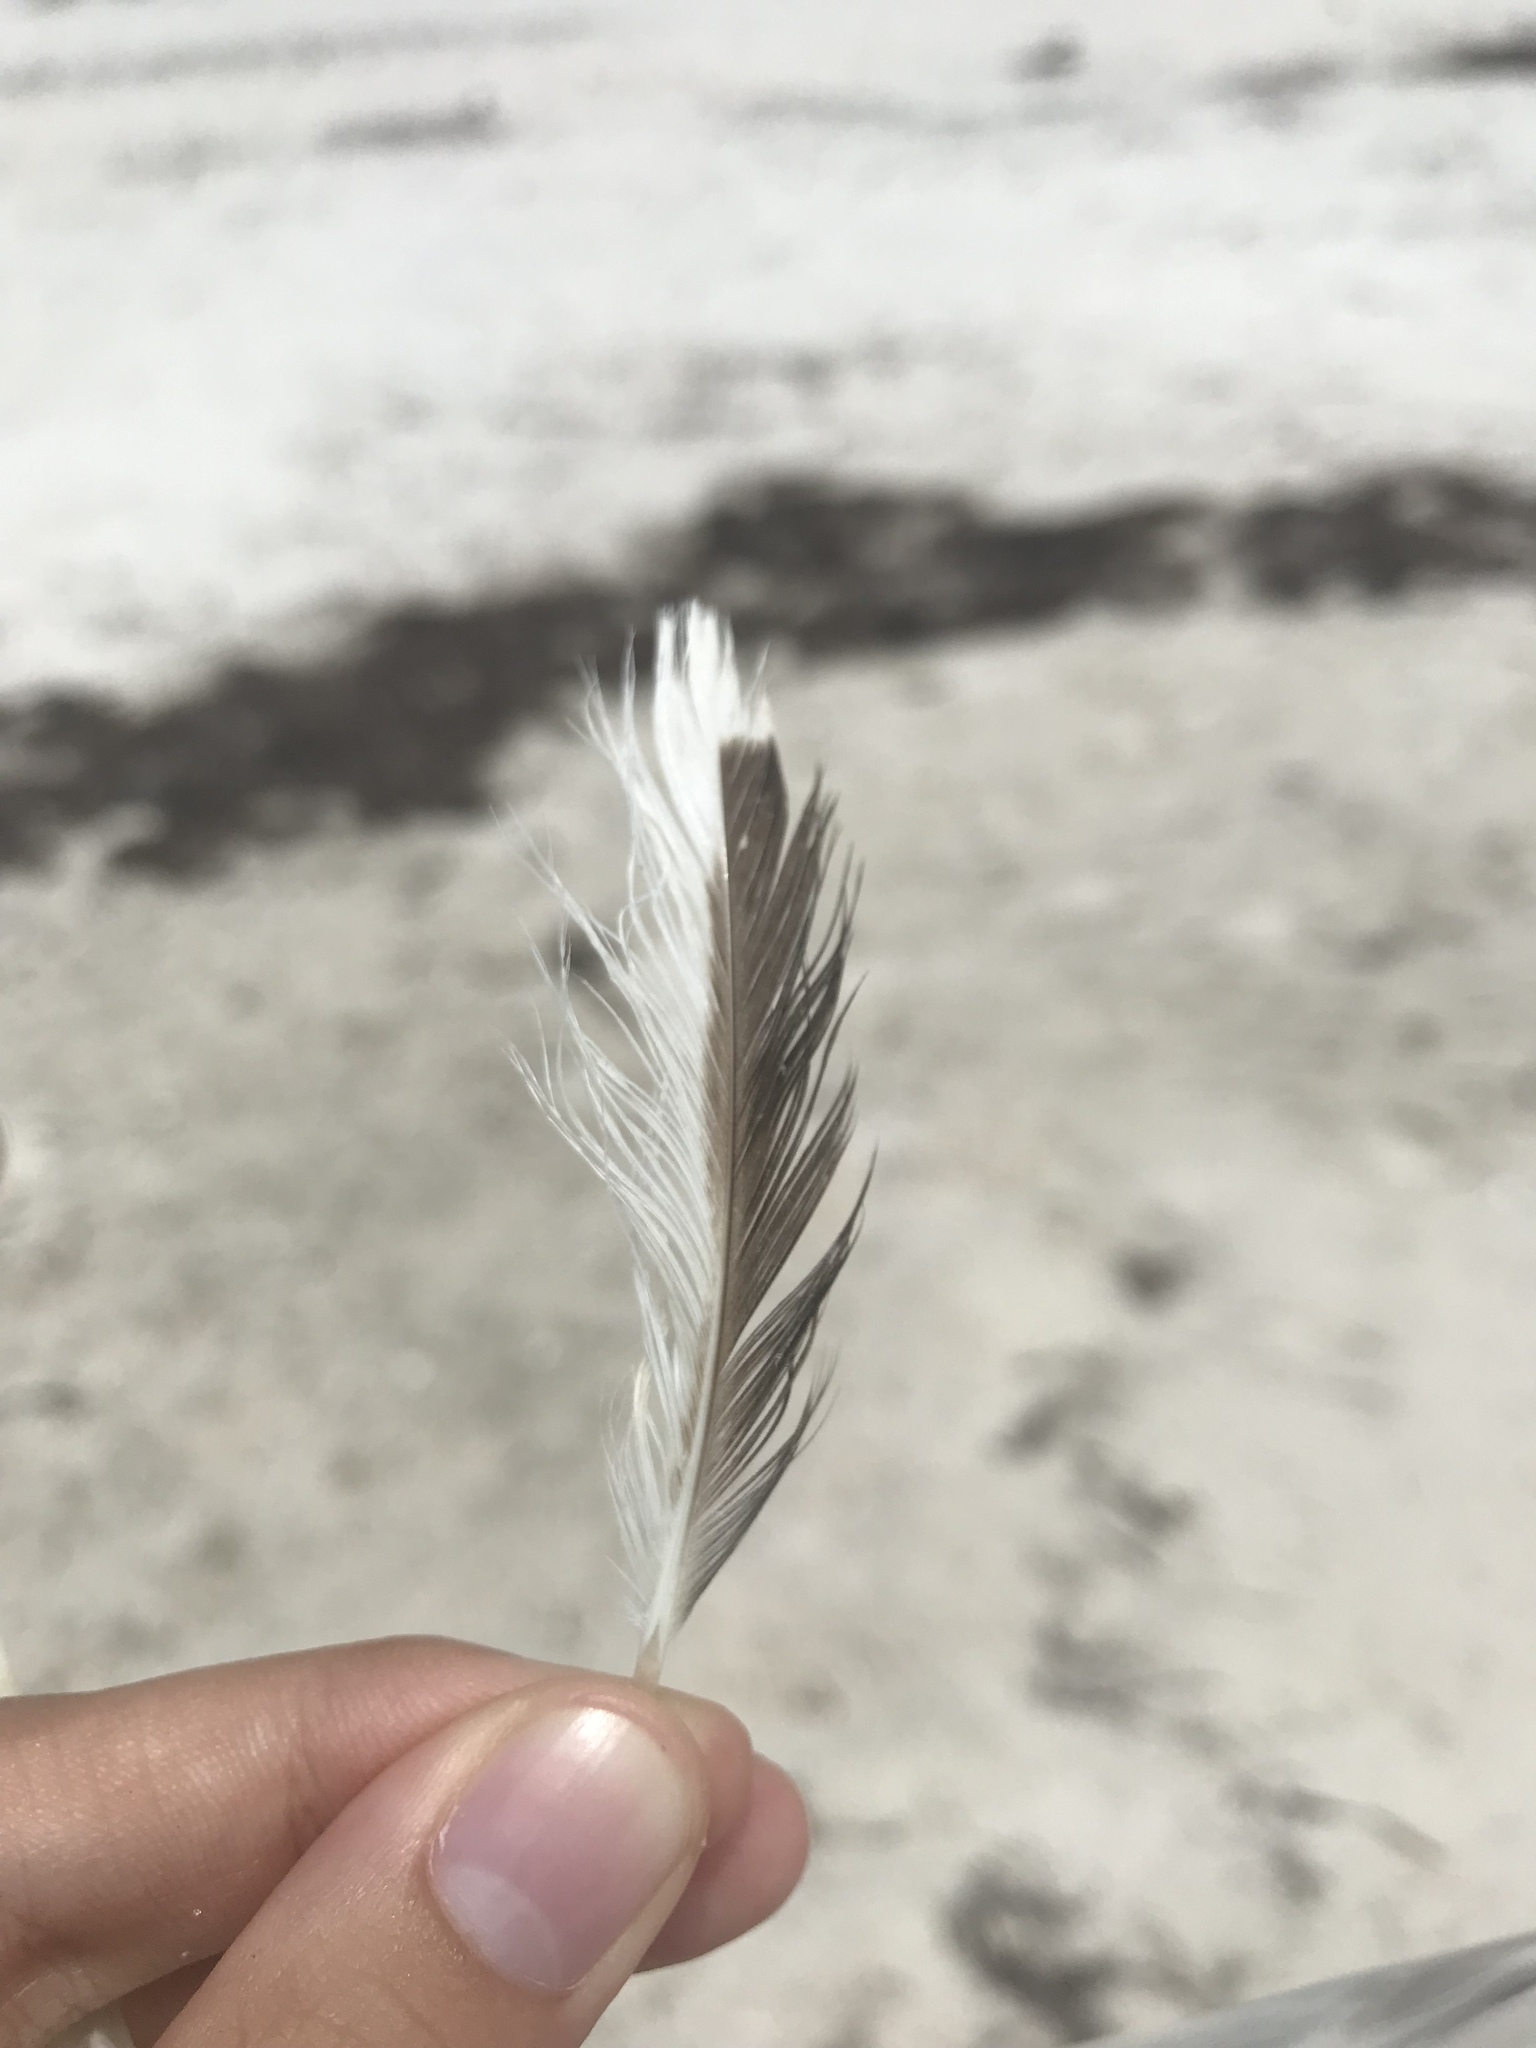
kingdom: Animalia
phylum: Chordata
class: Aves
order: Charadriiformes
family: Haematopodidae
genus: Haematopus
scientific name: Haematopus palliatus
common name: American oystercatcher
